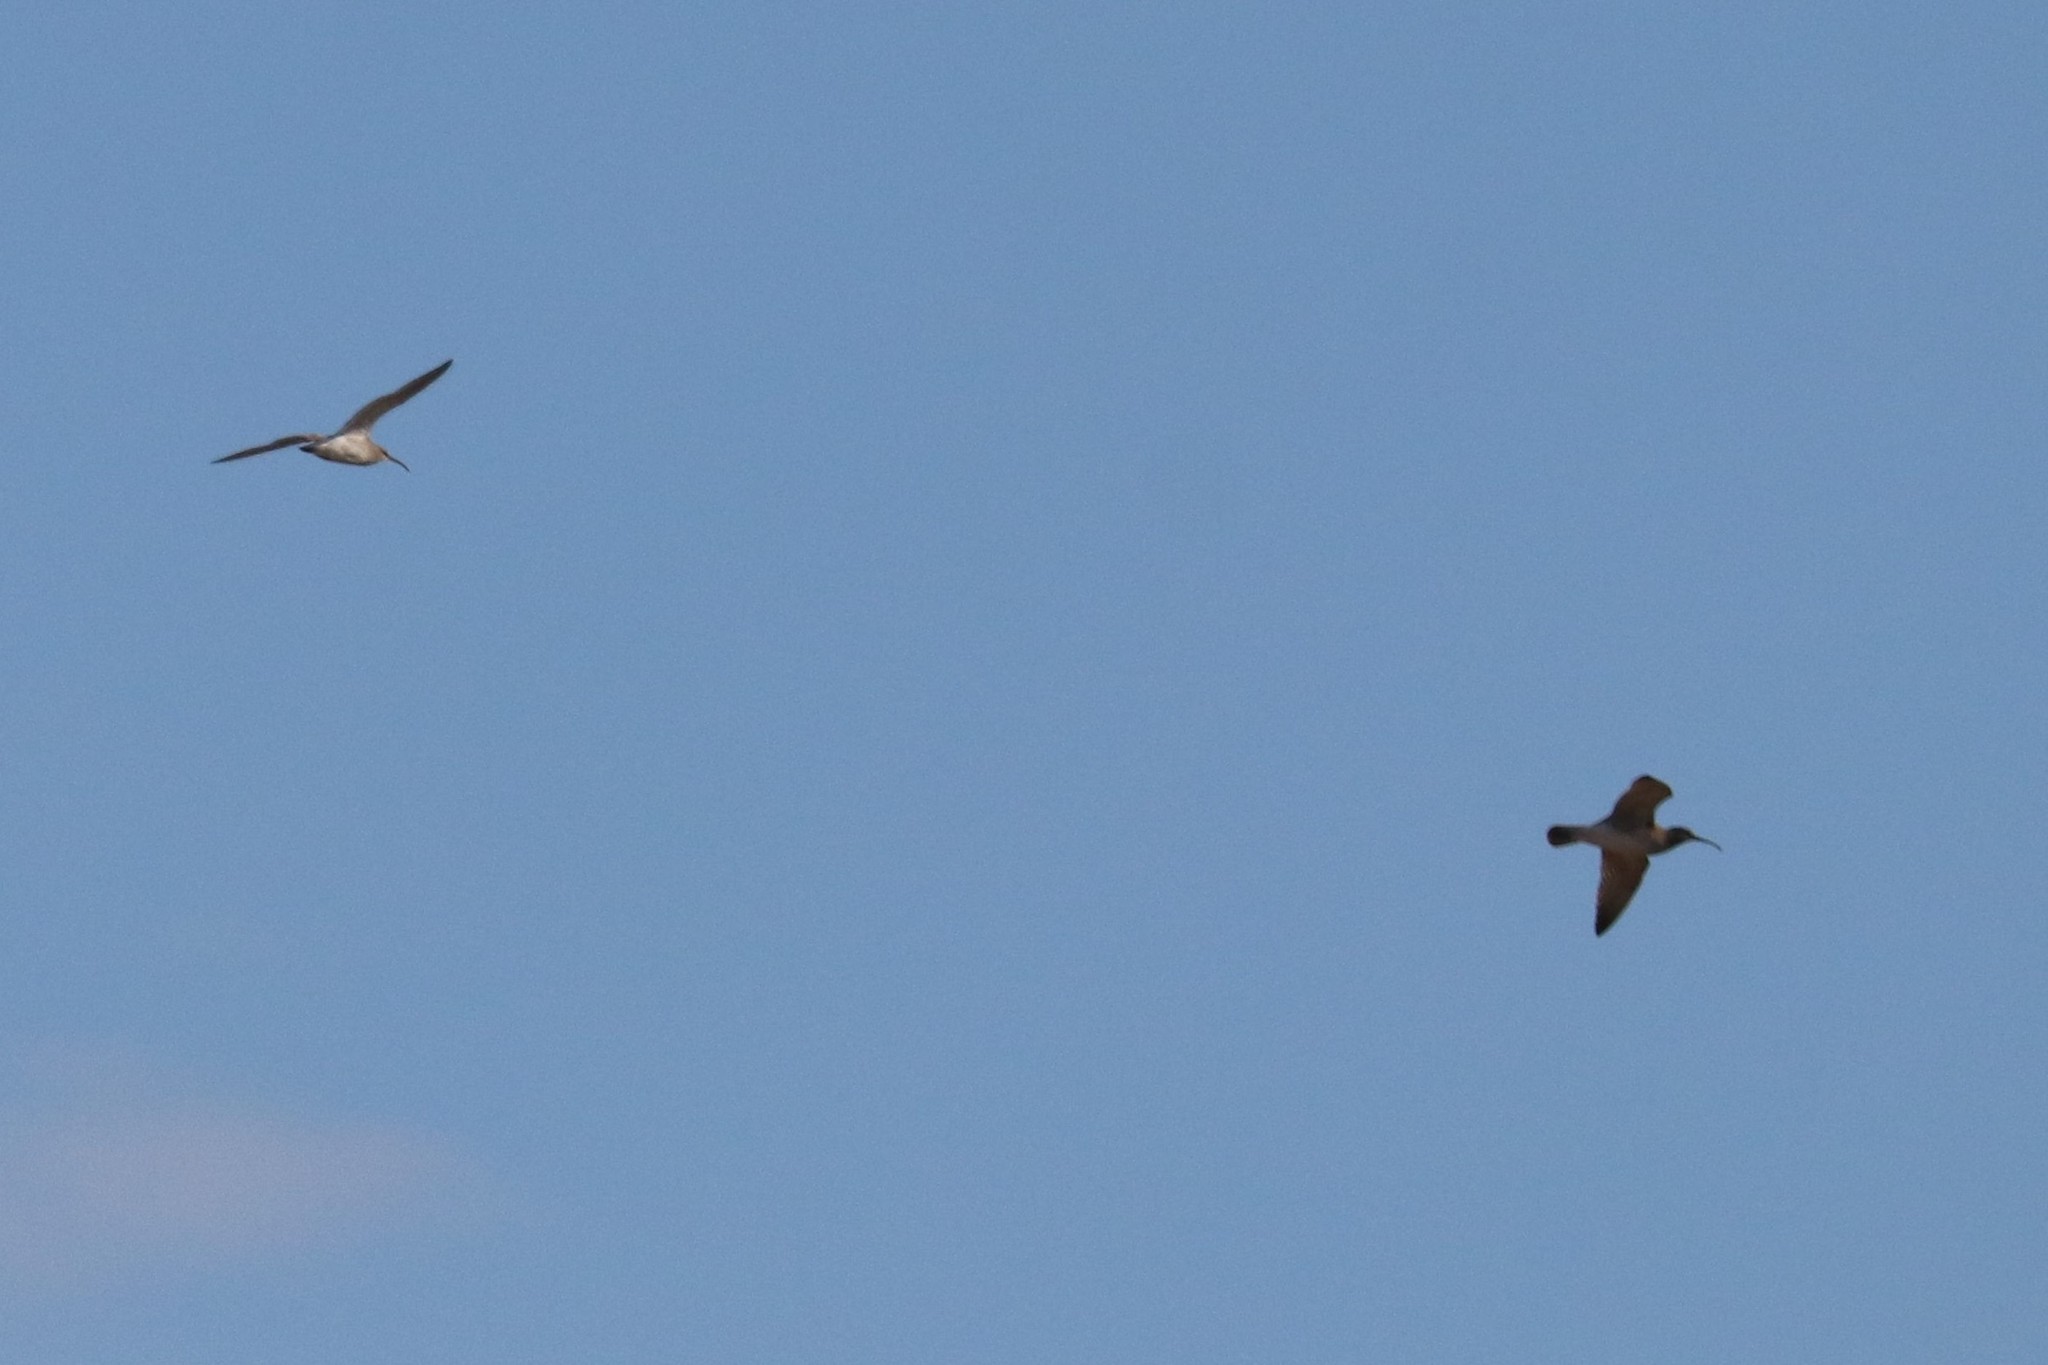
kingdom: Animalia
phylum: Chordata
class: Aves
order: Charadriiformes
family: Scolopacidae
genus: Numenius
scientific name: Numenius phaeopus
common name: Whimbrel
